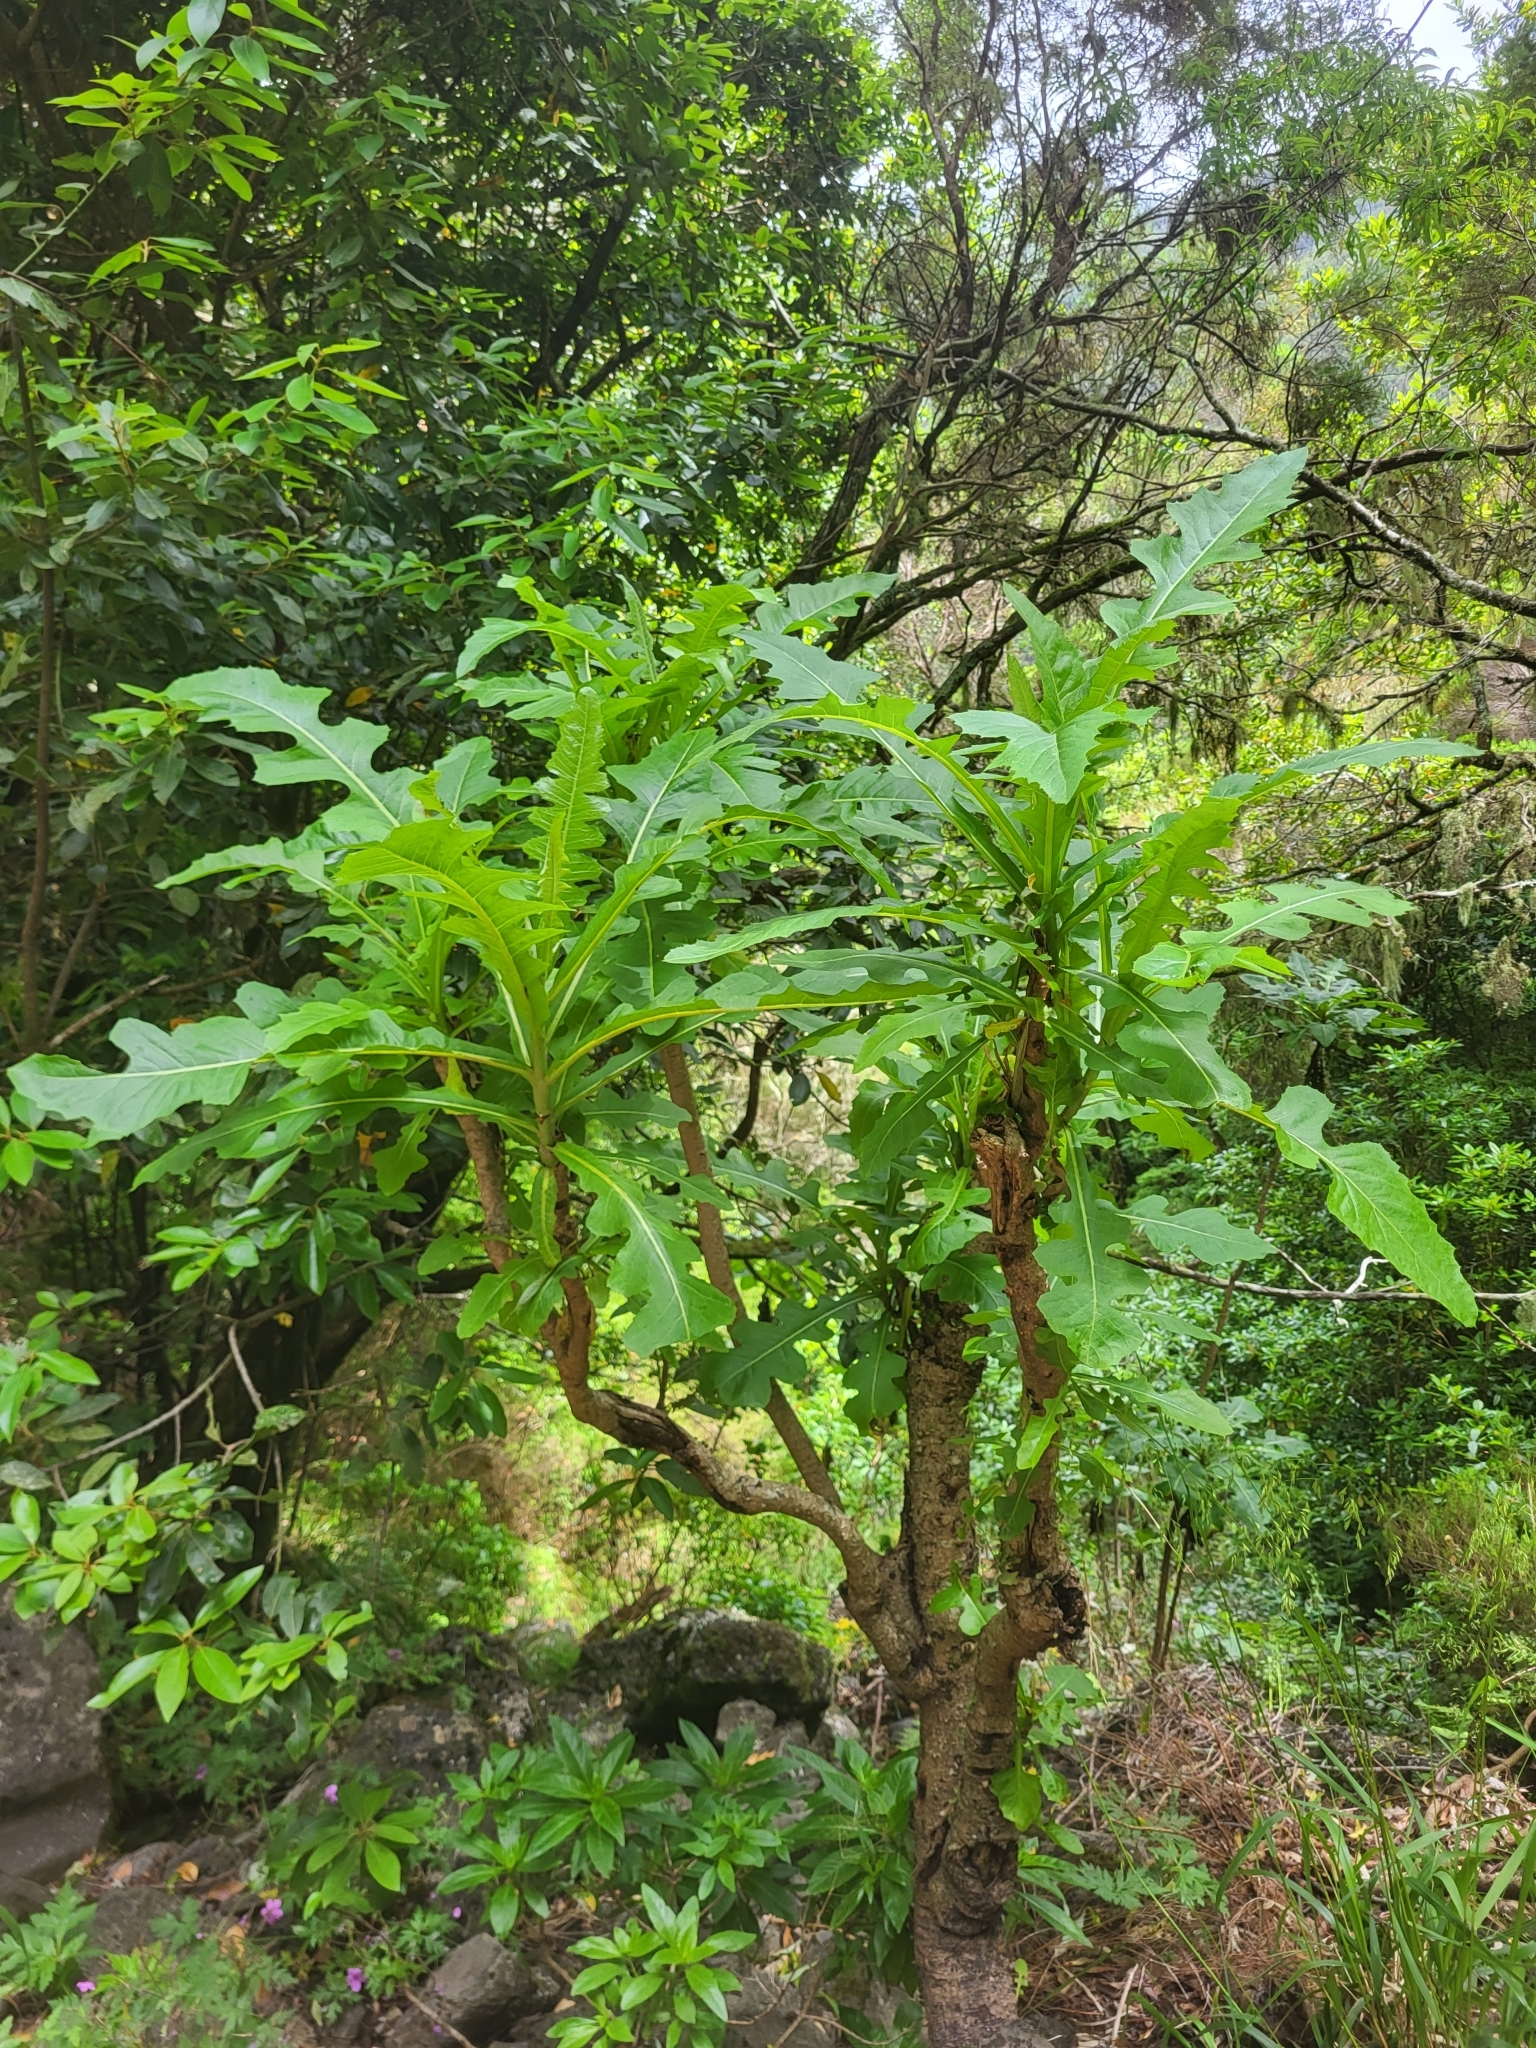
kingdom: Plantae
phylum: Tracheophyta
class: Magnoliopsida
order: Asterales
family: Asteraceae
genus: Sonchus
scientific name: Sonchus fruticosus
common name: Shrubby sow-thistle
